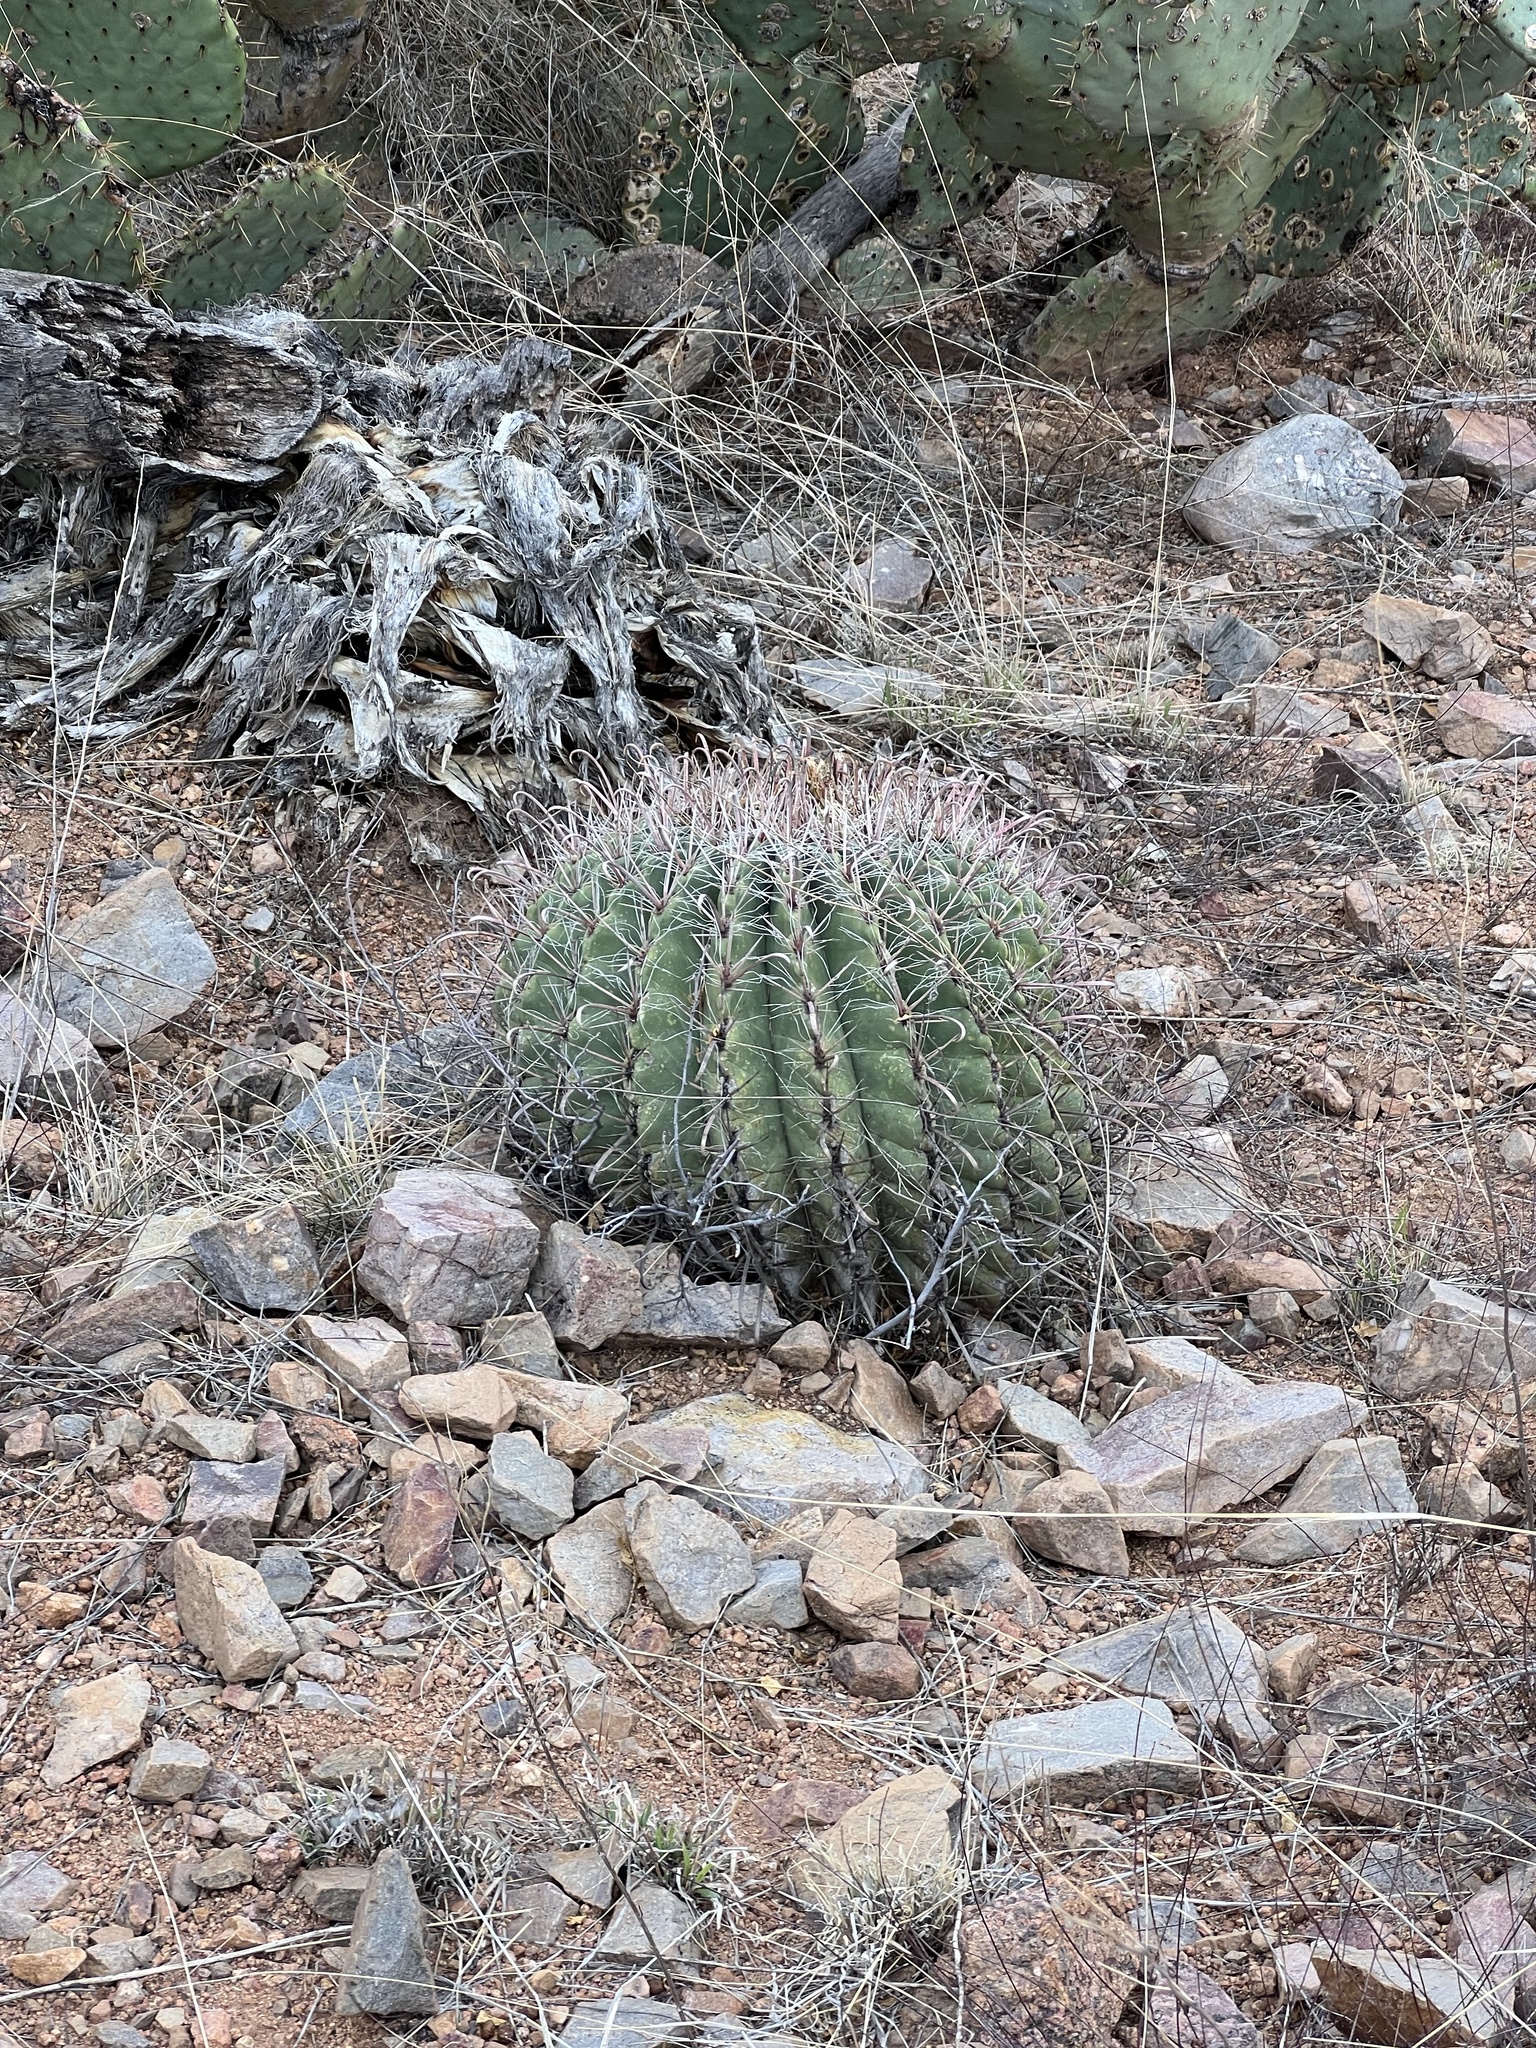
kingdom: Plantae
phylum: Tracheophyta
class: Magnoliopsida
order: Caryophyllales
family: Cactaceae
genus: Ferocactus
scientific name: Ferocactus wislizeni
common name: Candy barrel cactus
